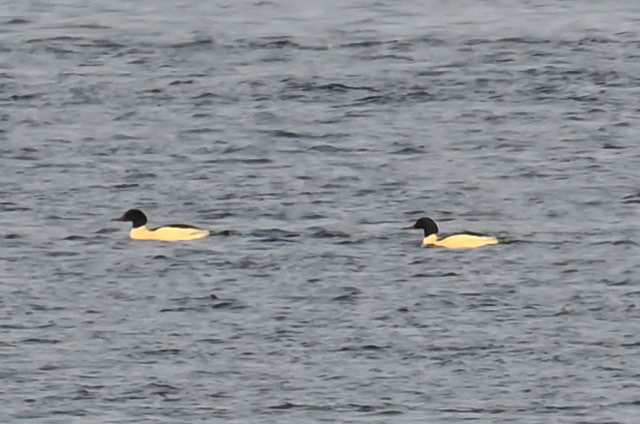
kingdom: Animalia
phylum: Chordata
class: Aves
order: Anseriformes
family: Anatidae
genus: Mergus
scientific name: Mergus merganser
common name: Common merganser
